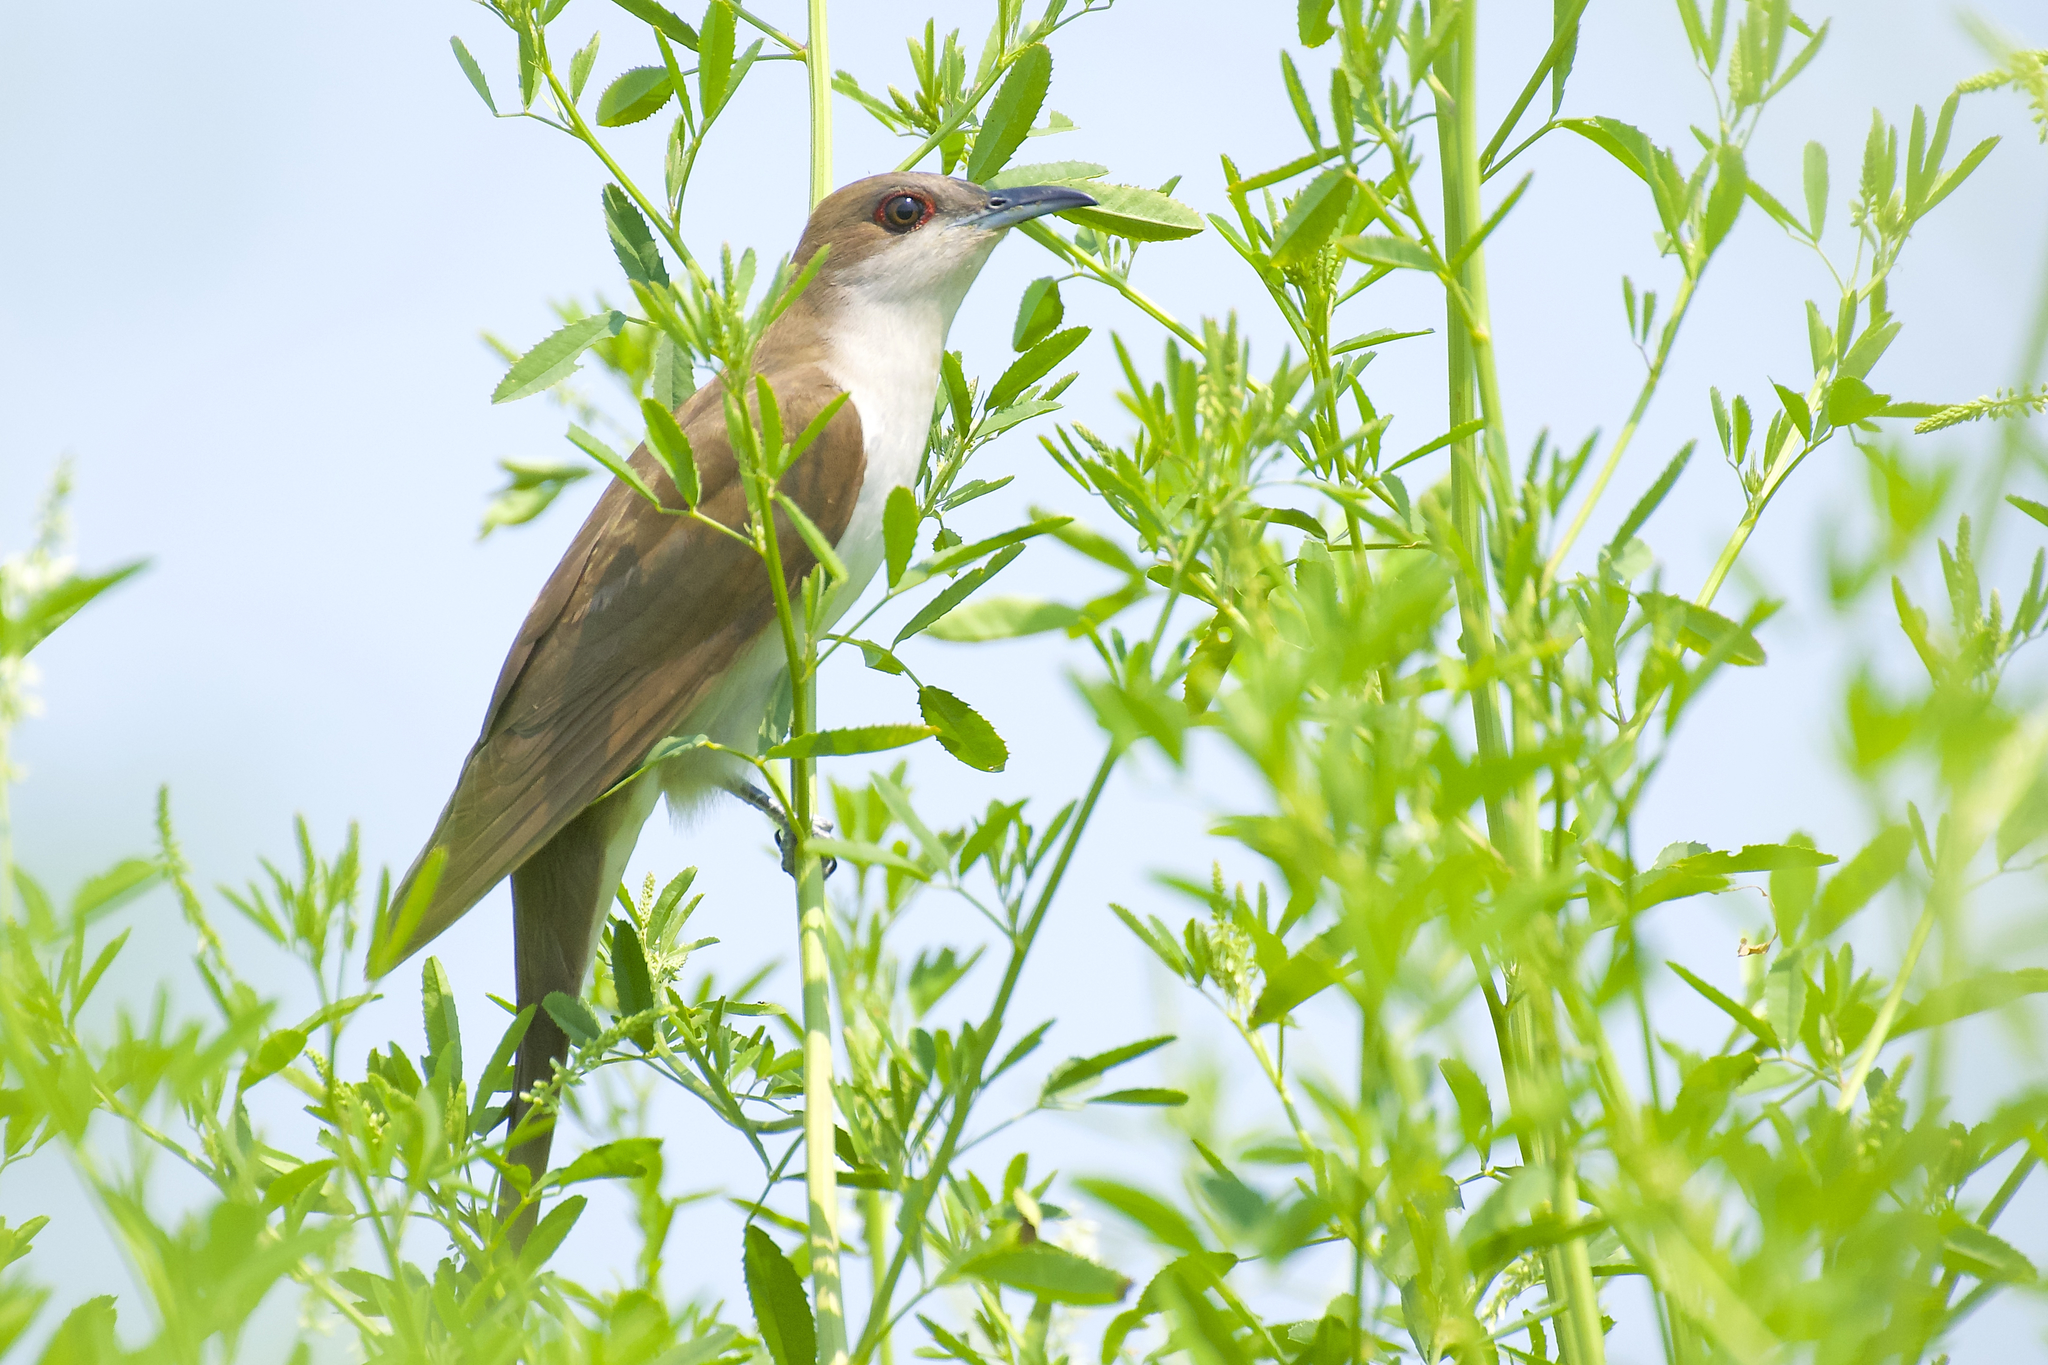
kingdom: Animalia
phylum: Chordata
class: Aves
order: Cuculiformes
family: Cuculidae
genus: Coccyzus
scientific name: Coccyzus erythropthalmus
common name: Black-billed cuckoo
